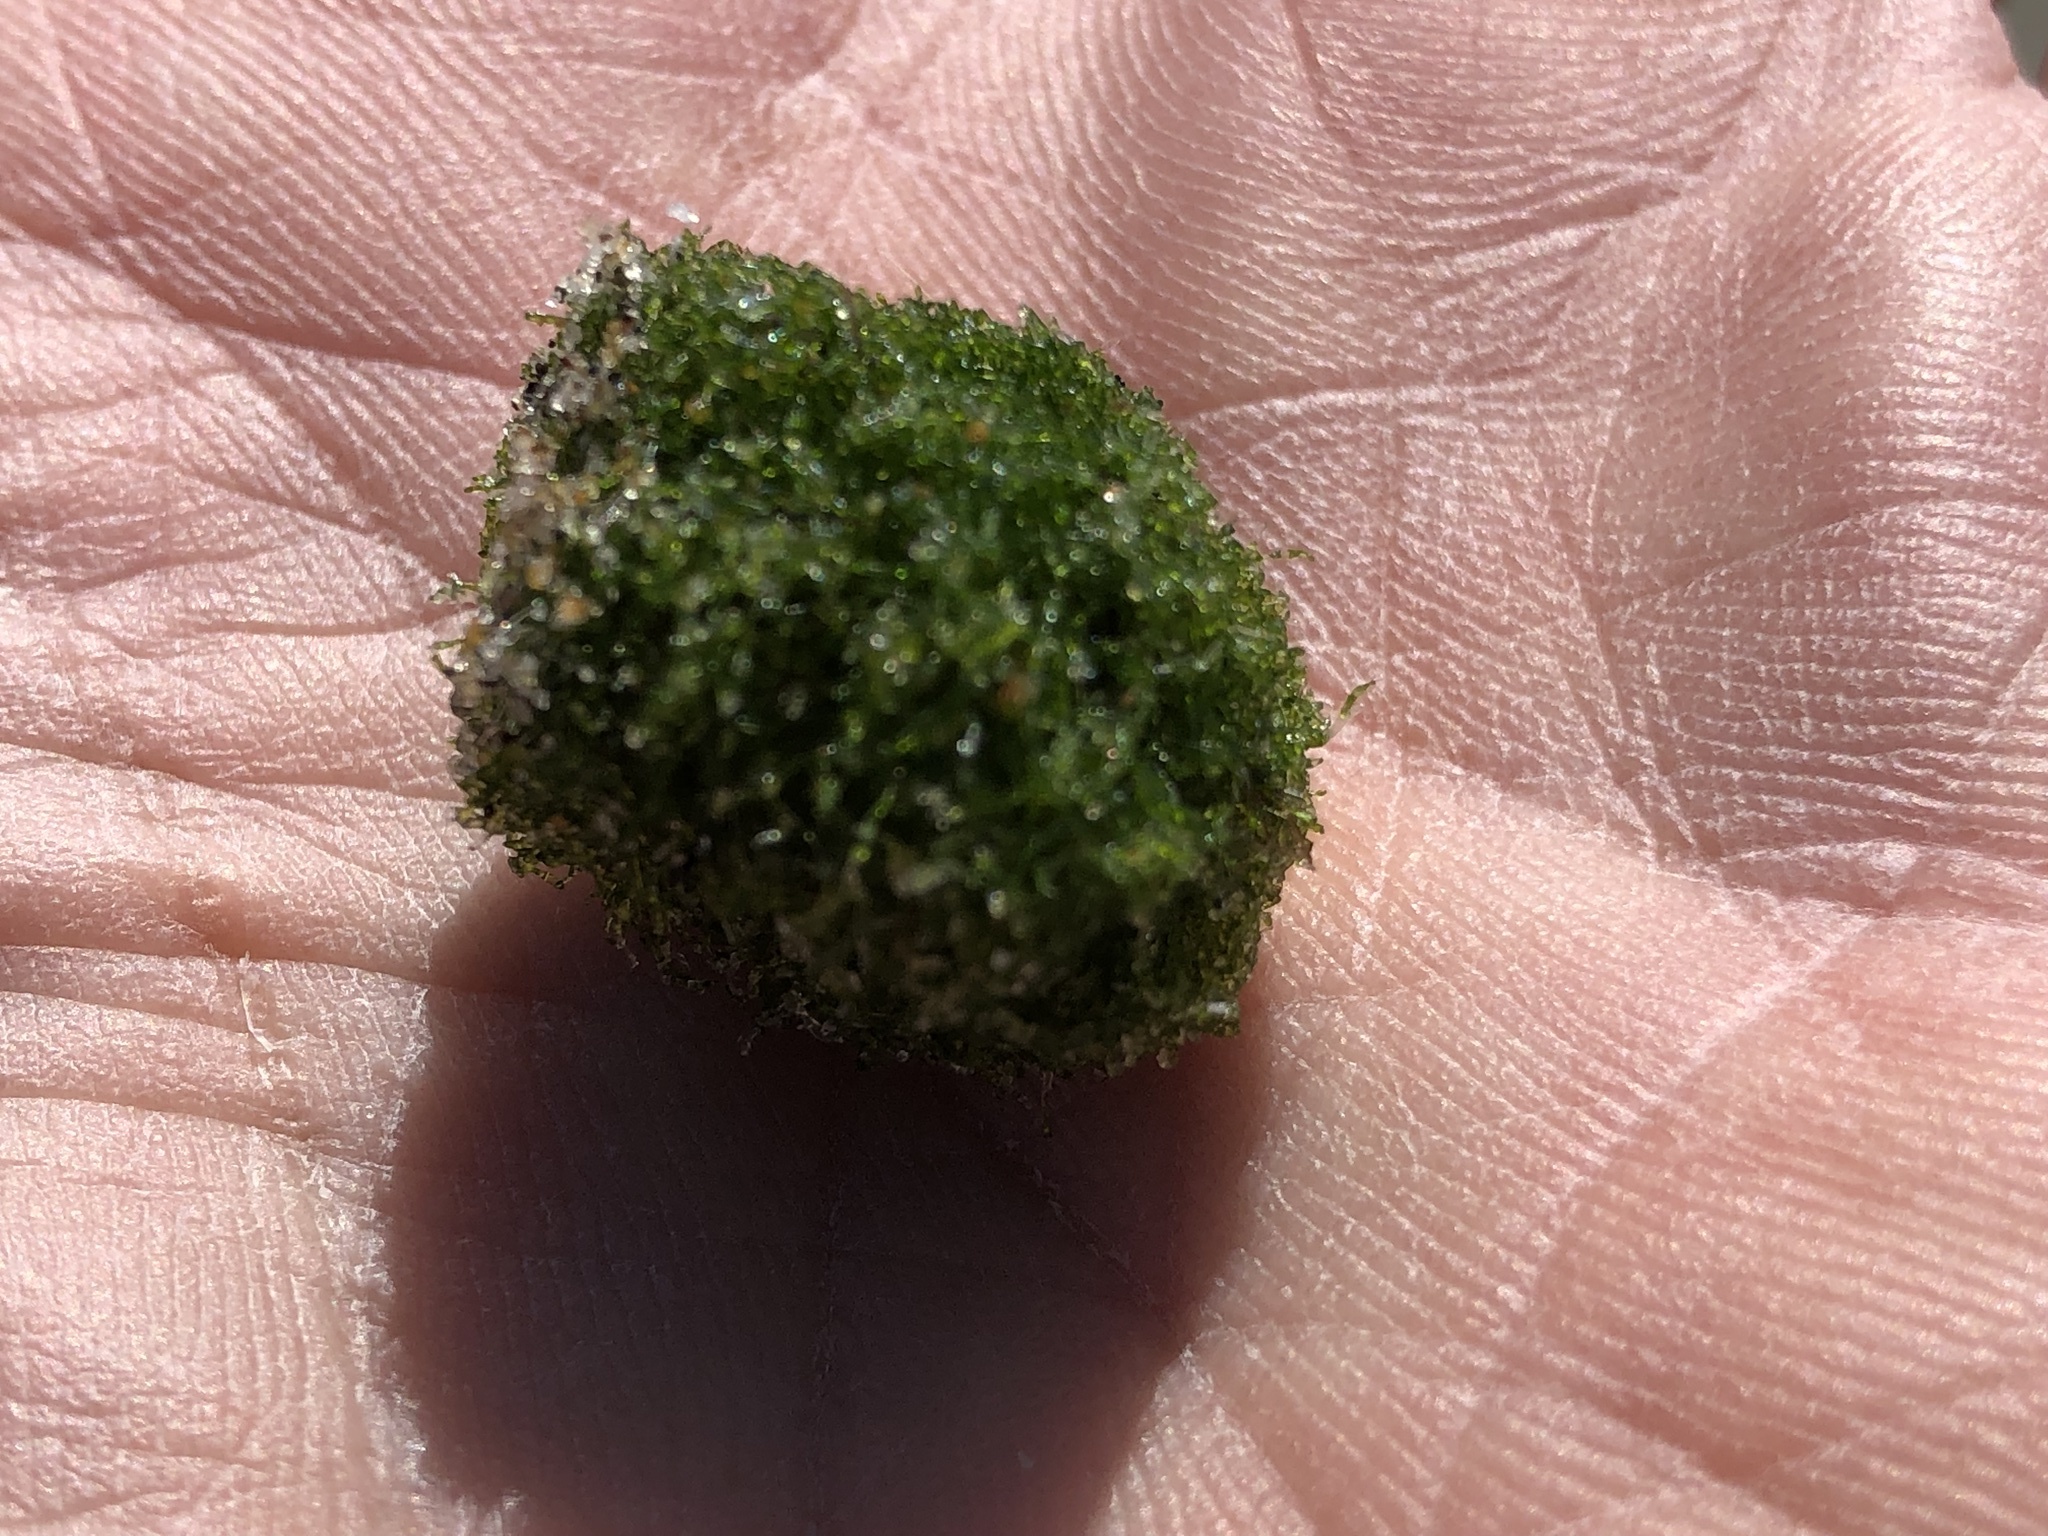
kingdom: Plantae
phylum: Chlorophyta
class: Ulvophyceae
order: Cladophorales
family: Cladophoraceae
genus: Cladophora
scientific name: Cladophora columbiana
